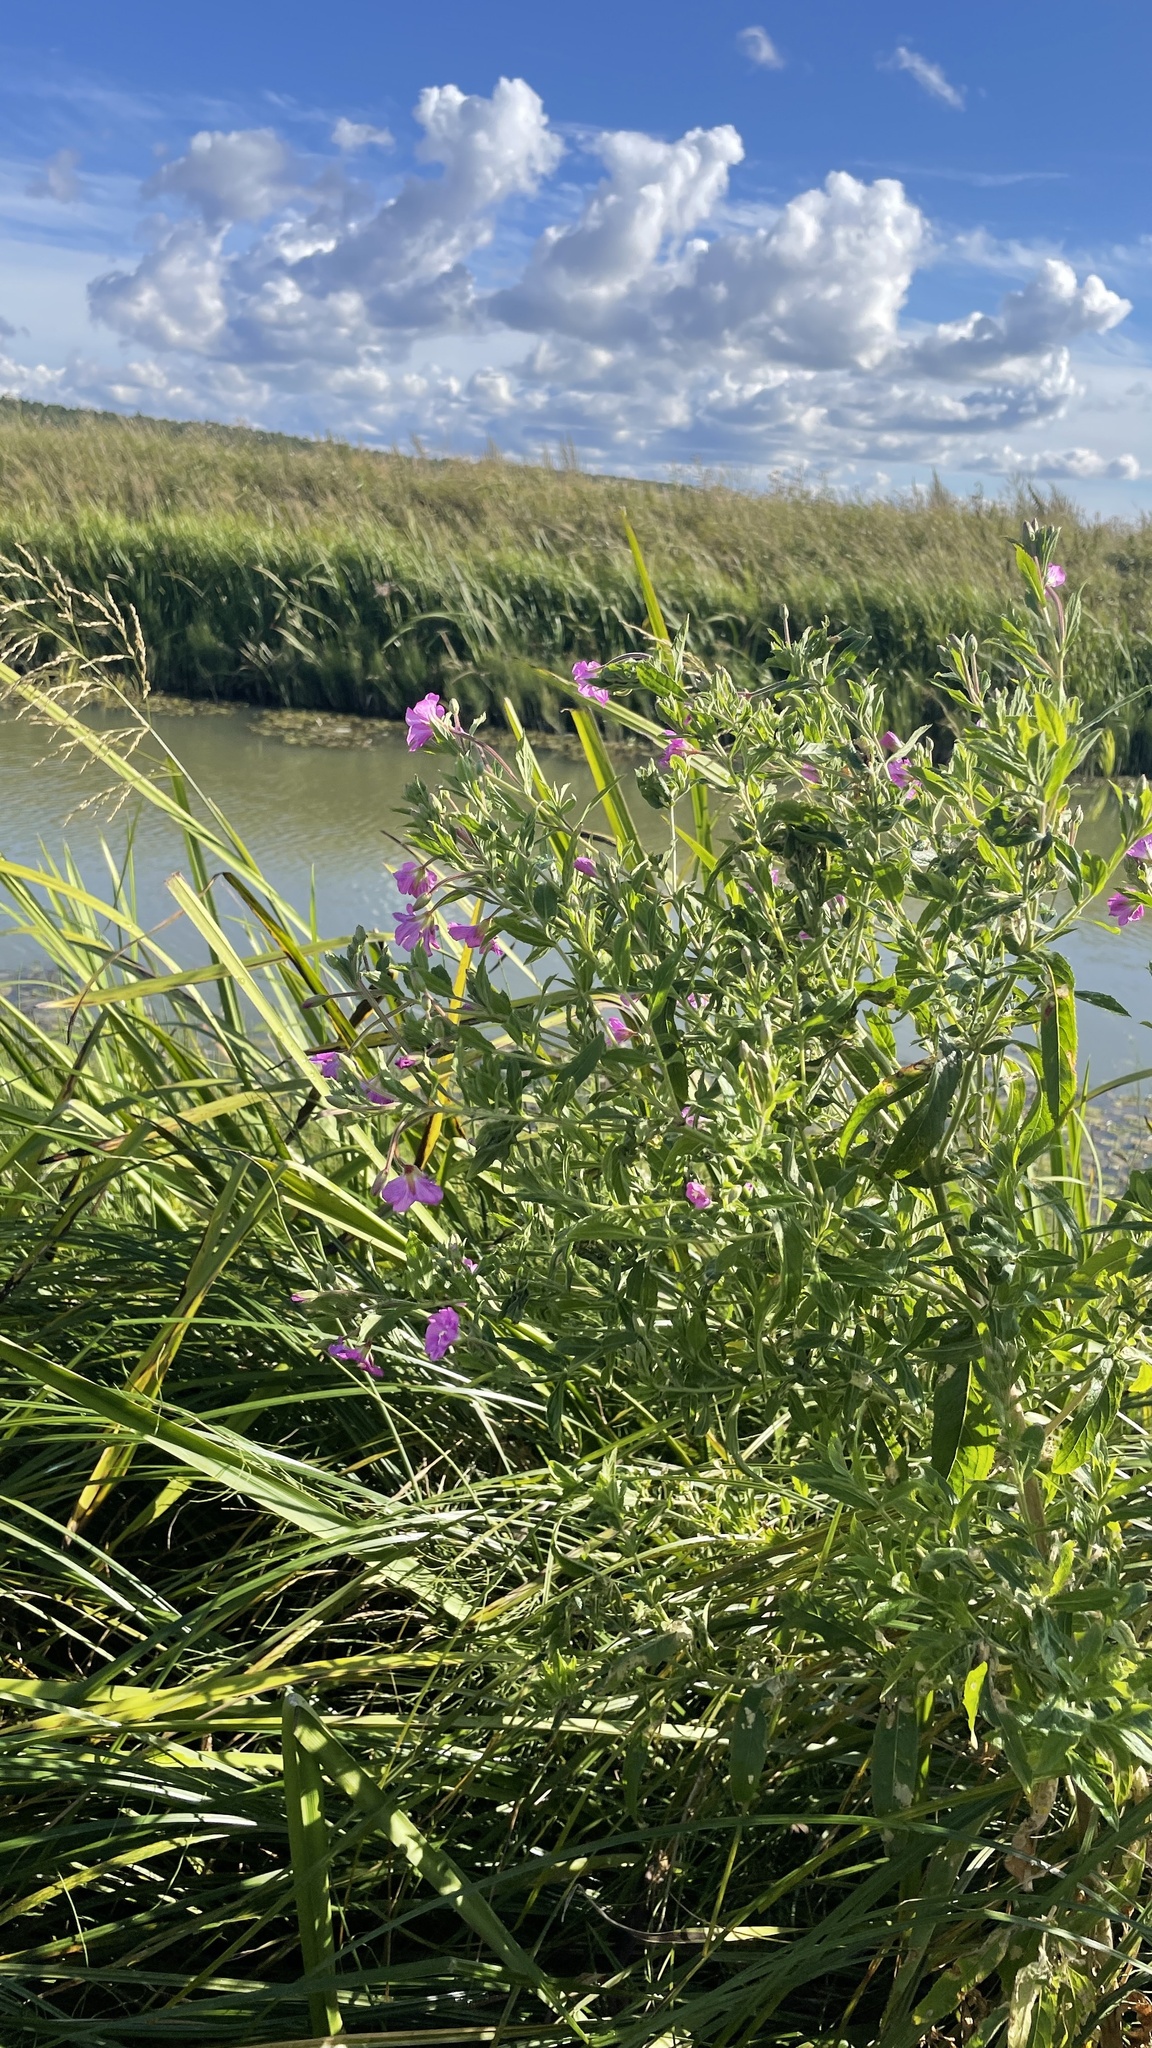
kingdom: Plantae
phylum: Tracheophyta
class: Magnoliopsida
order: Myrtales
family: Onagraceae
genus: Epilobium
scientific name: Epilobium hirsutum
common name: Great willowherb
